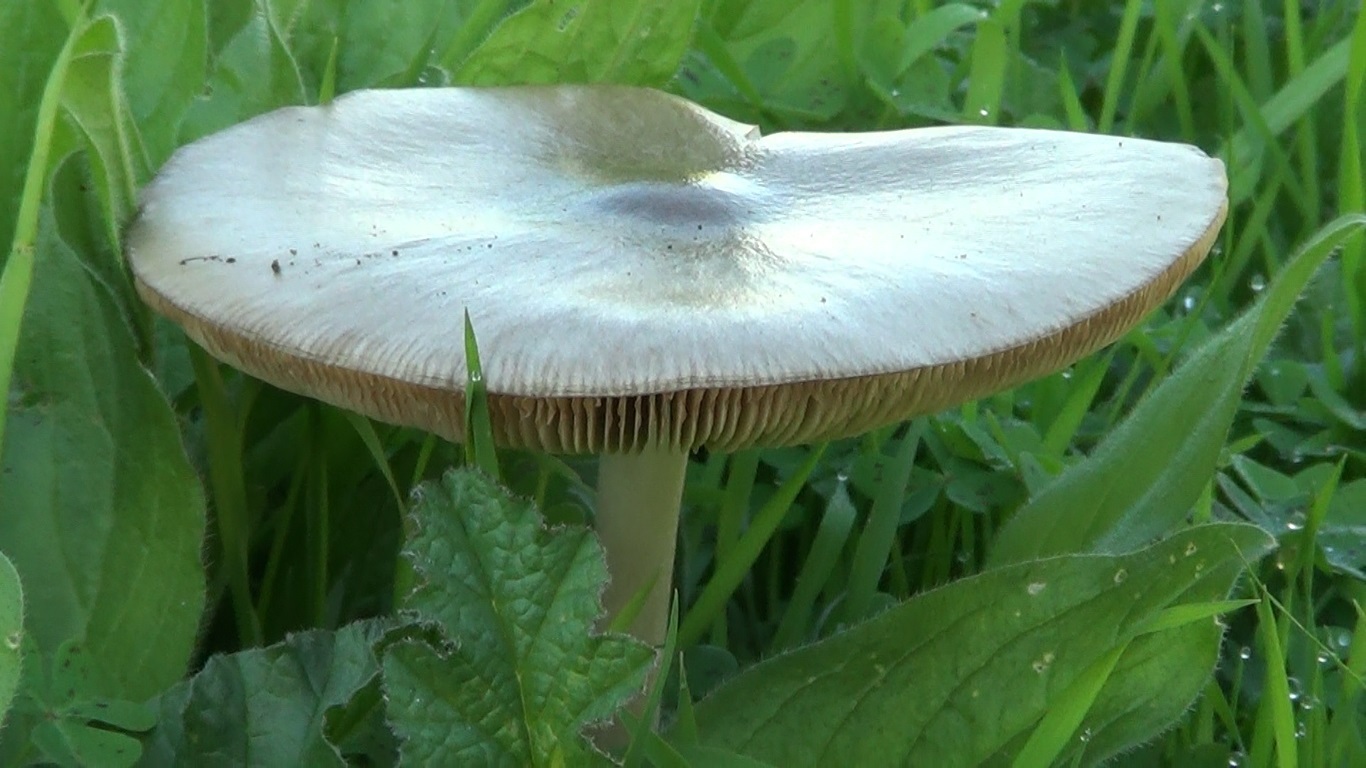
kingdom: Fungi
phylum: Basidiomycota
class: Agaricomycetes
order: Agaricales
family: Pluteaceae
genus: Volvopluteus
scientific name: Volvopluteus gloiocephalus
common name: Stubble rosegill
